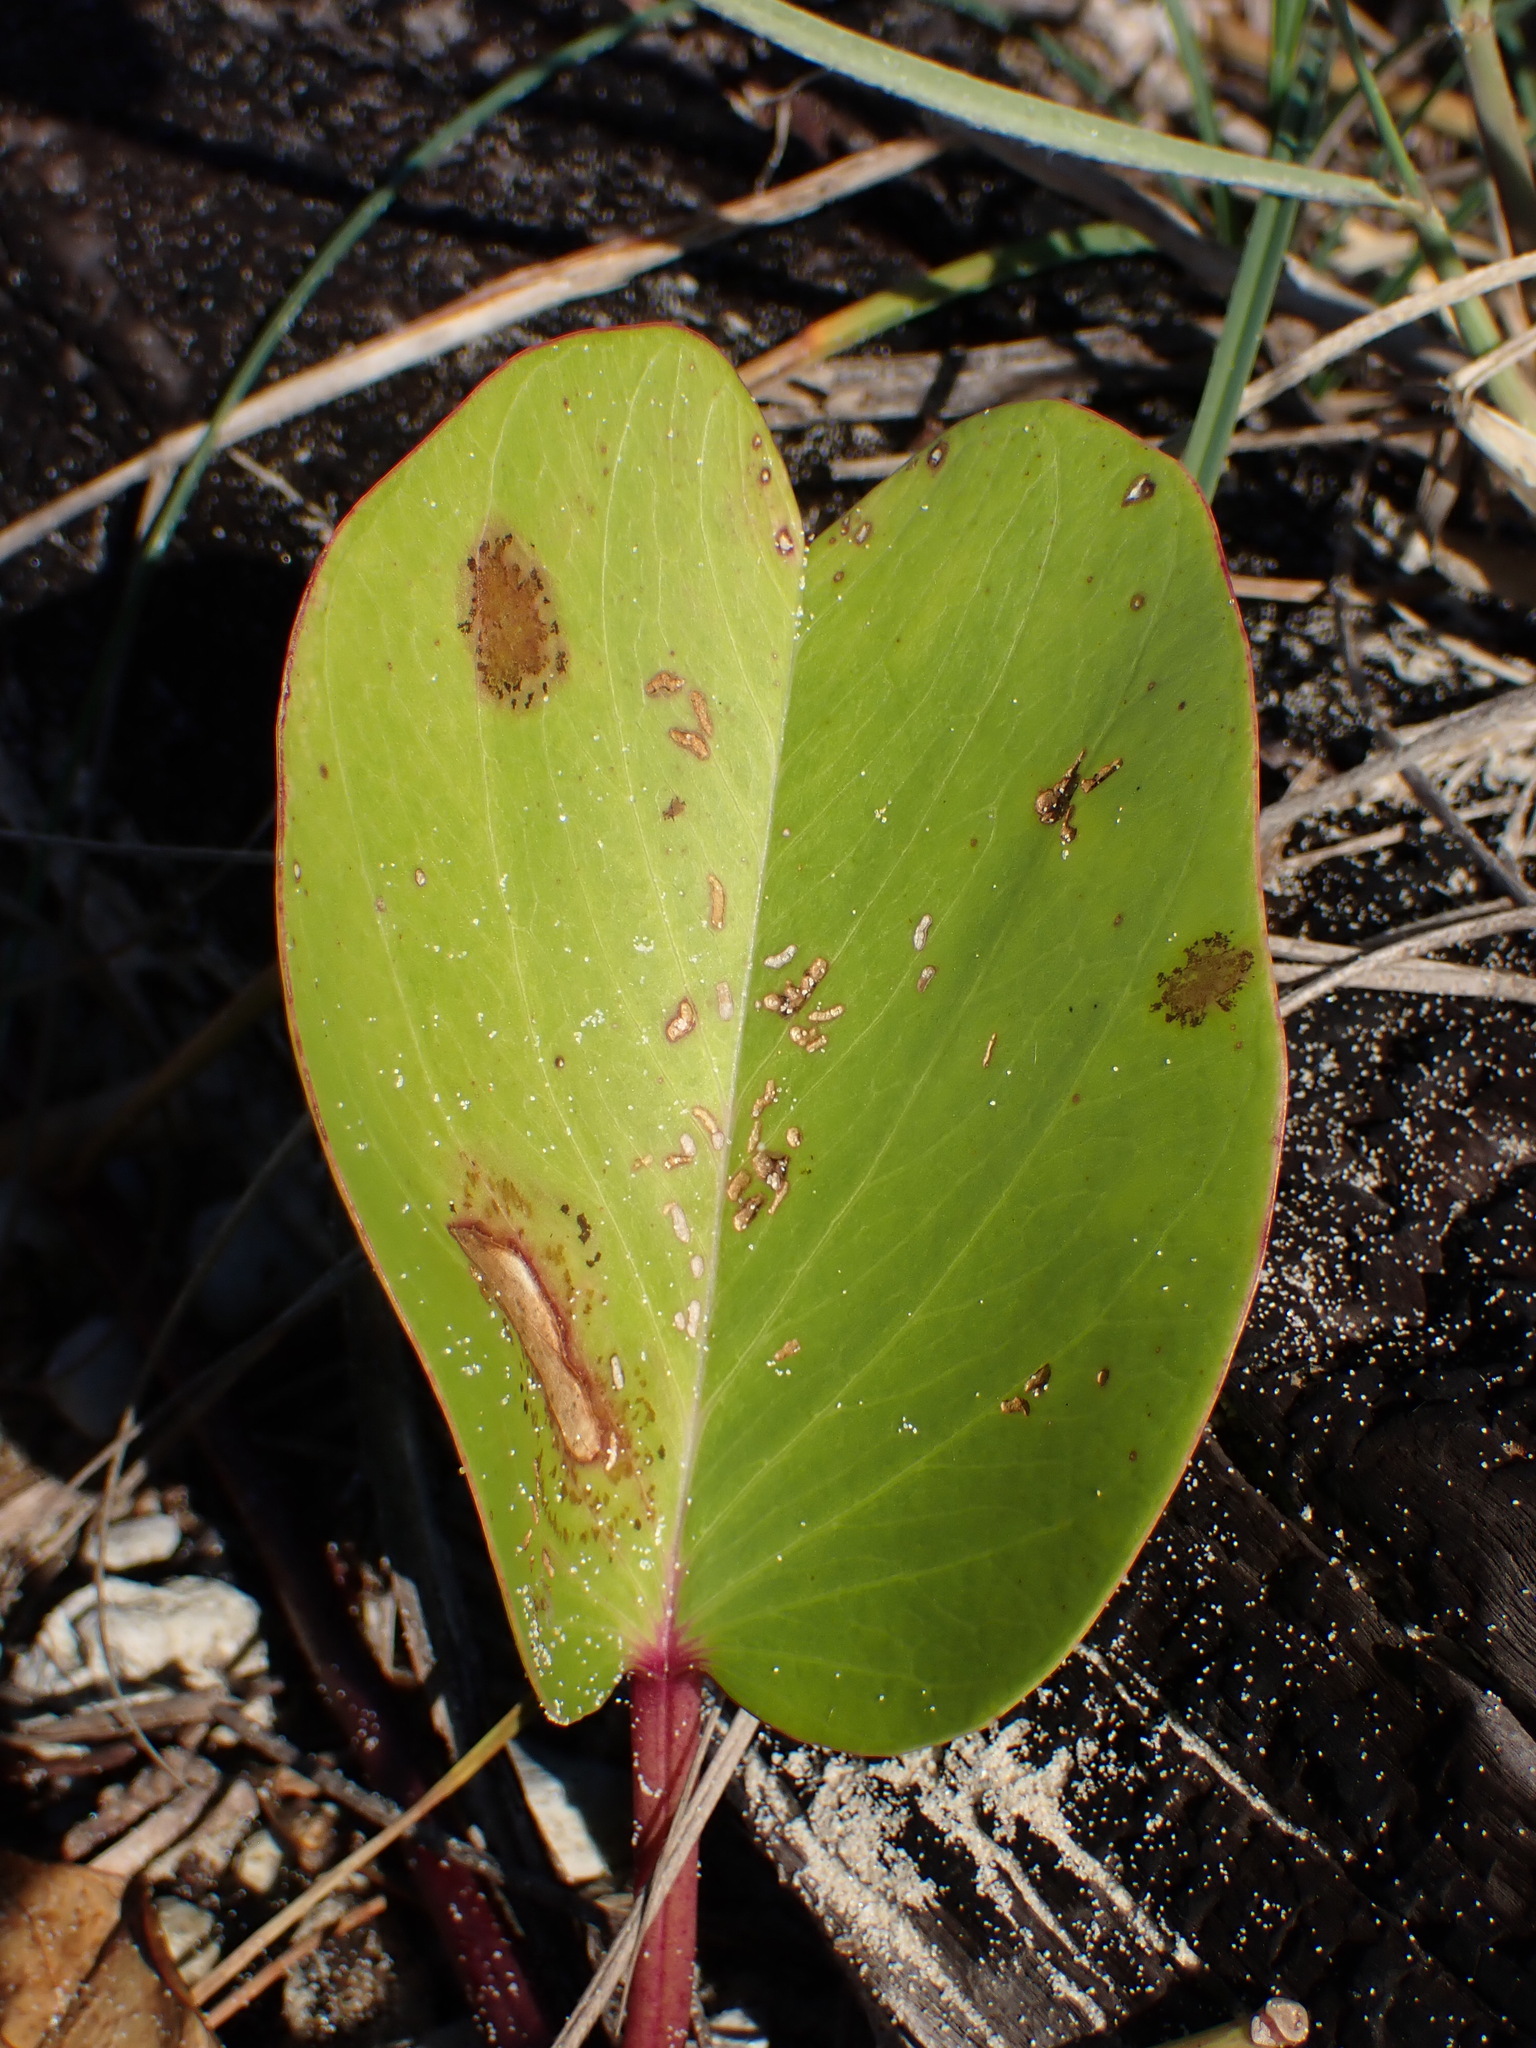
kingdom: Plantae
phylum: Tracheophyta
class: Magnoliopsida
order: Solanales
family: Convolvulaceae
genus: Ipomoea
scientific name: Ipomoea pes-caprae
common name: Beach morning glory
